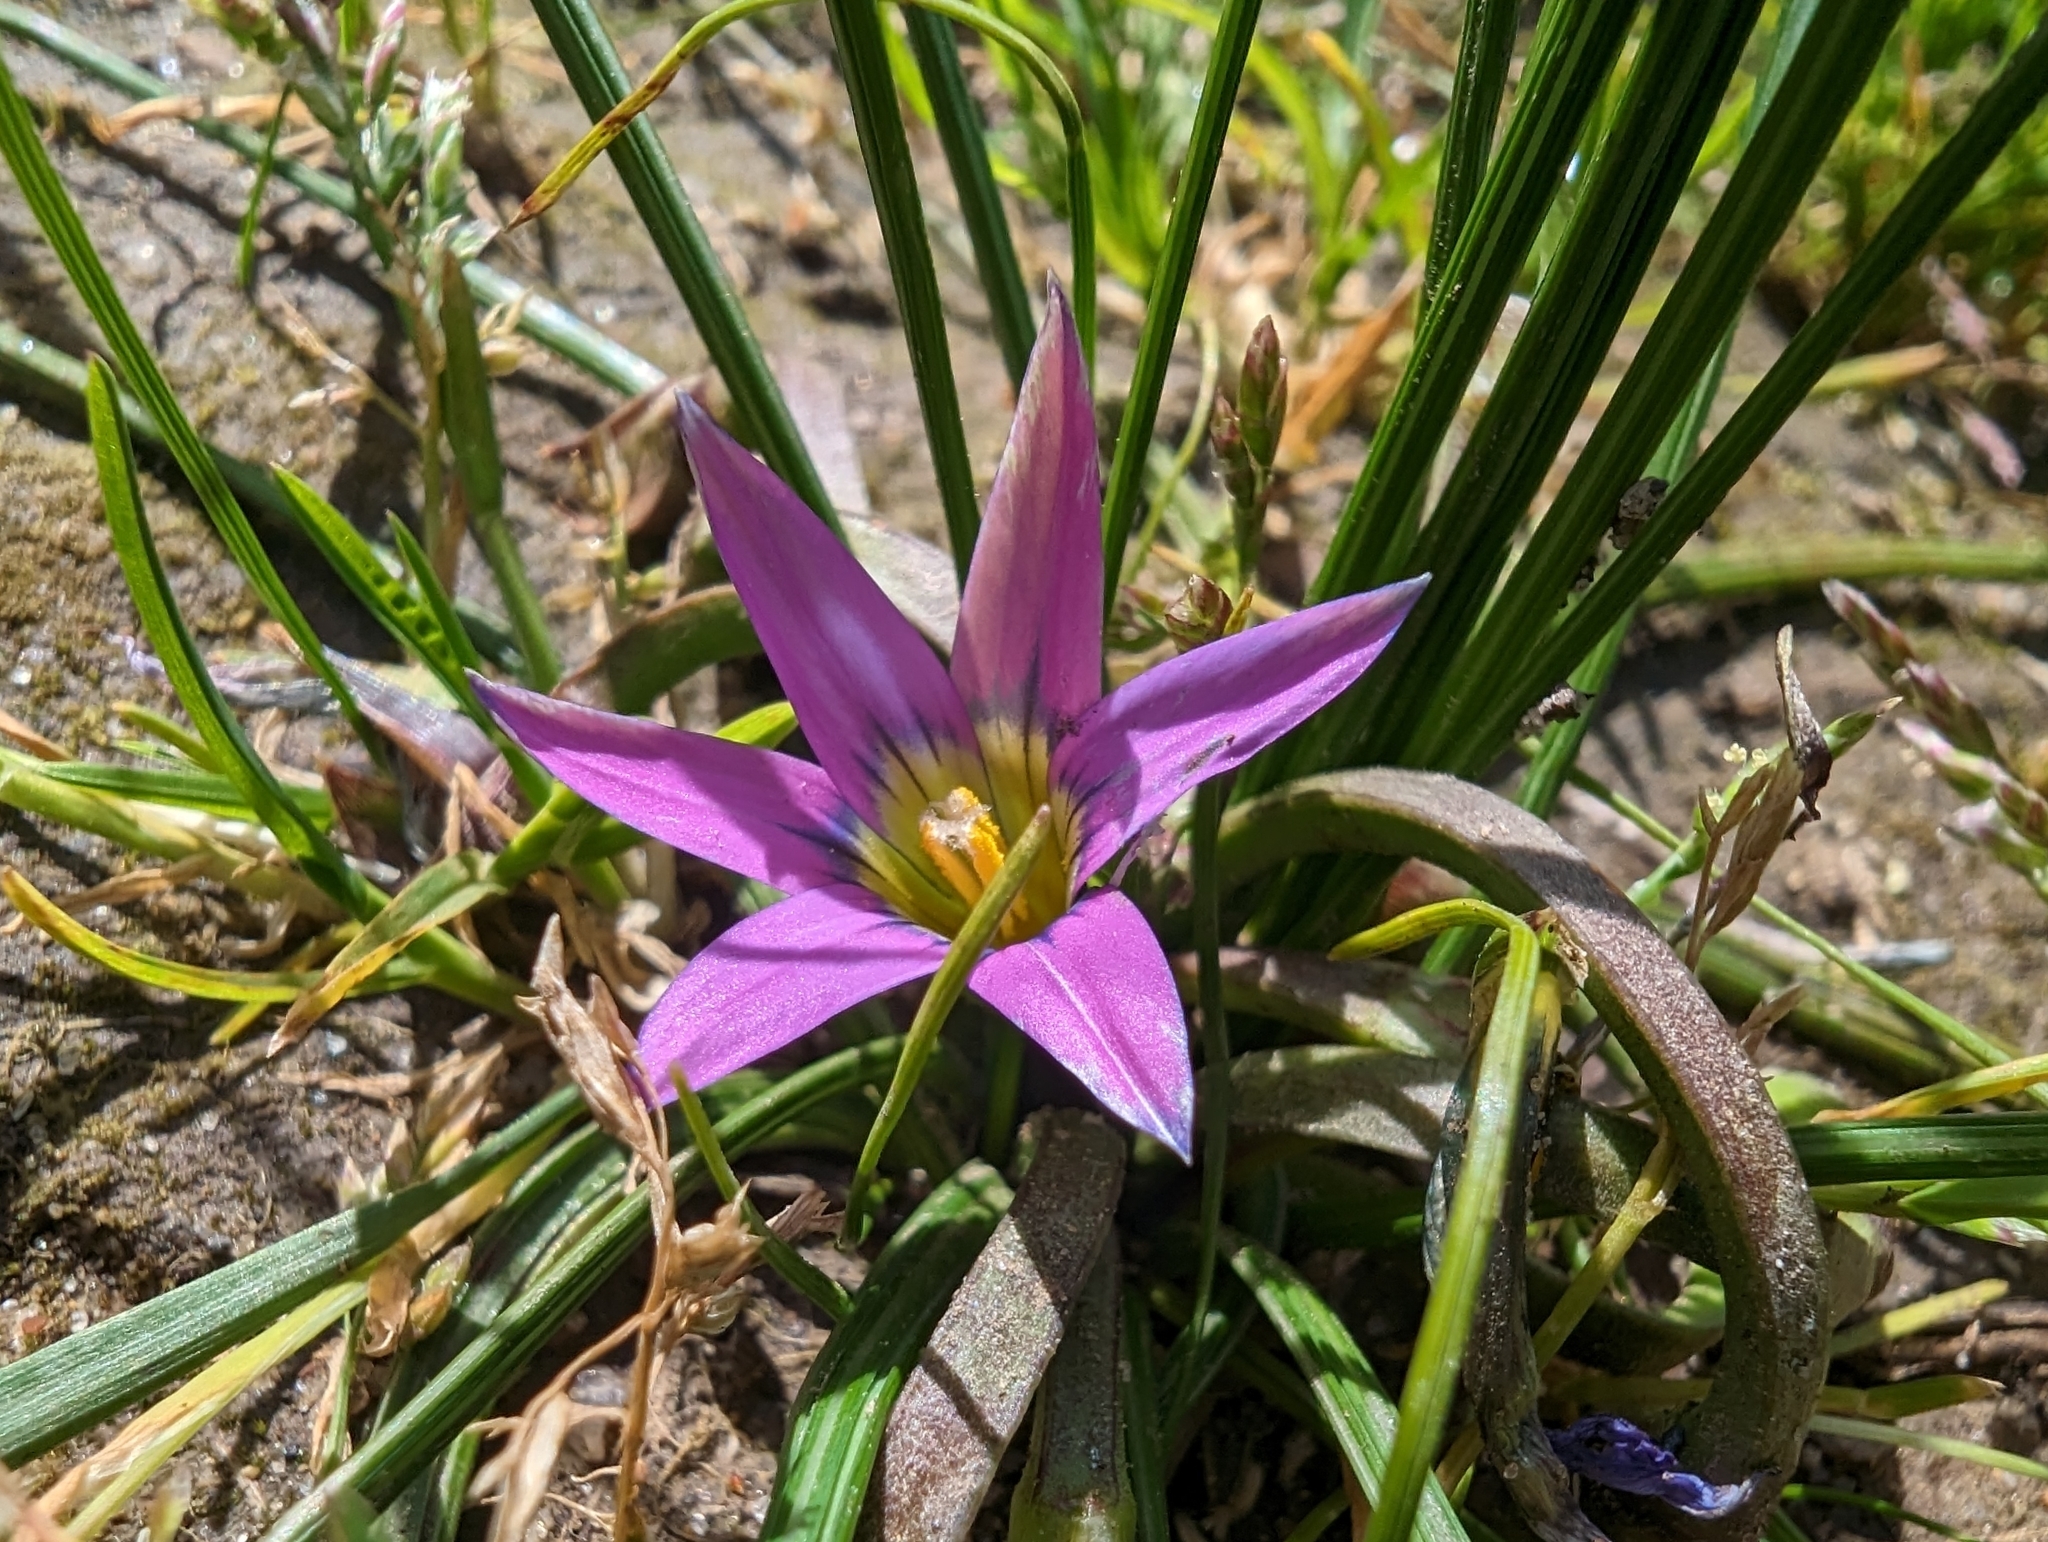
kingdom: Plantae
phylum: Tracheophyta
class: Liliopsida
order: Asparagales
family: Iridaceae
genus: Romulea
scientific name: Romulea rosea
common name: Oniongrass
